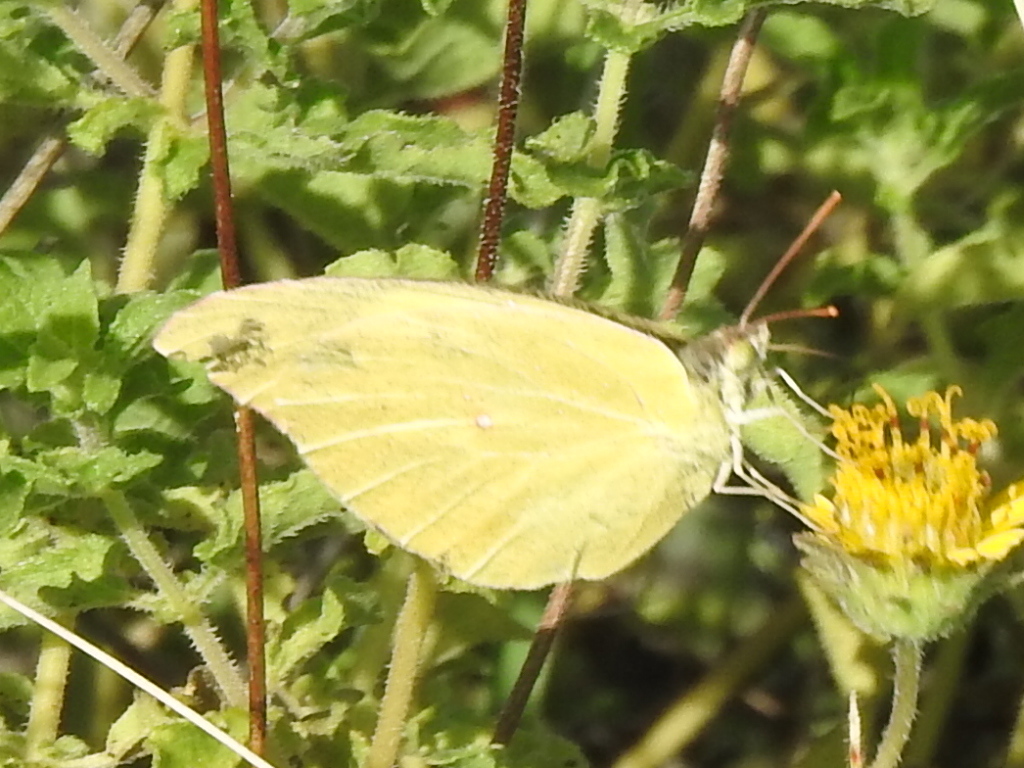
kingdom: Animalia
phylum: Arthropoda
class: Insecta
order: Lepidoptera
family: Pieridae
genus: Zerene
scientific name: Zerene cesonia
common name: Southern dogface
